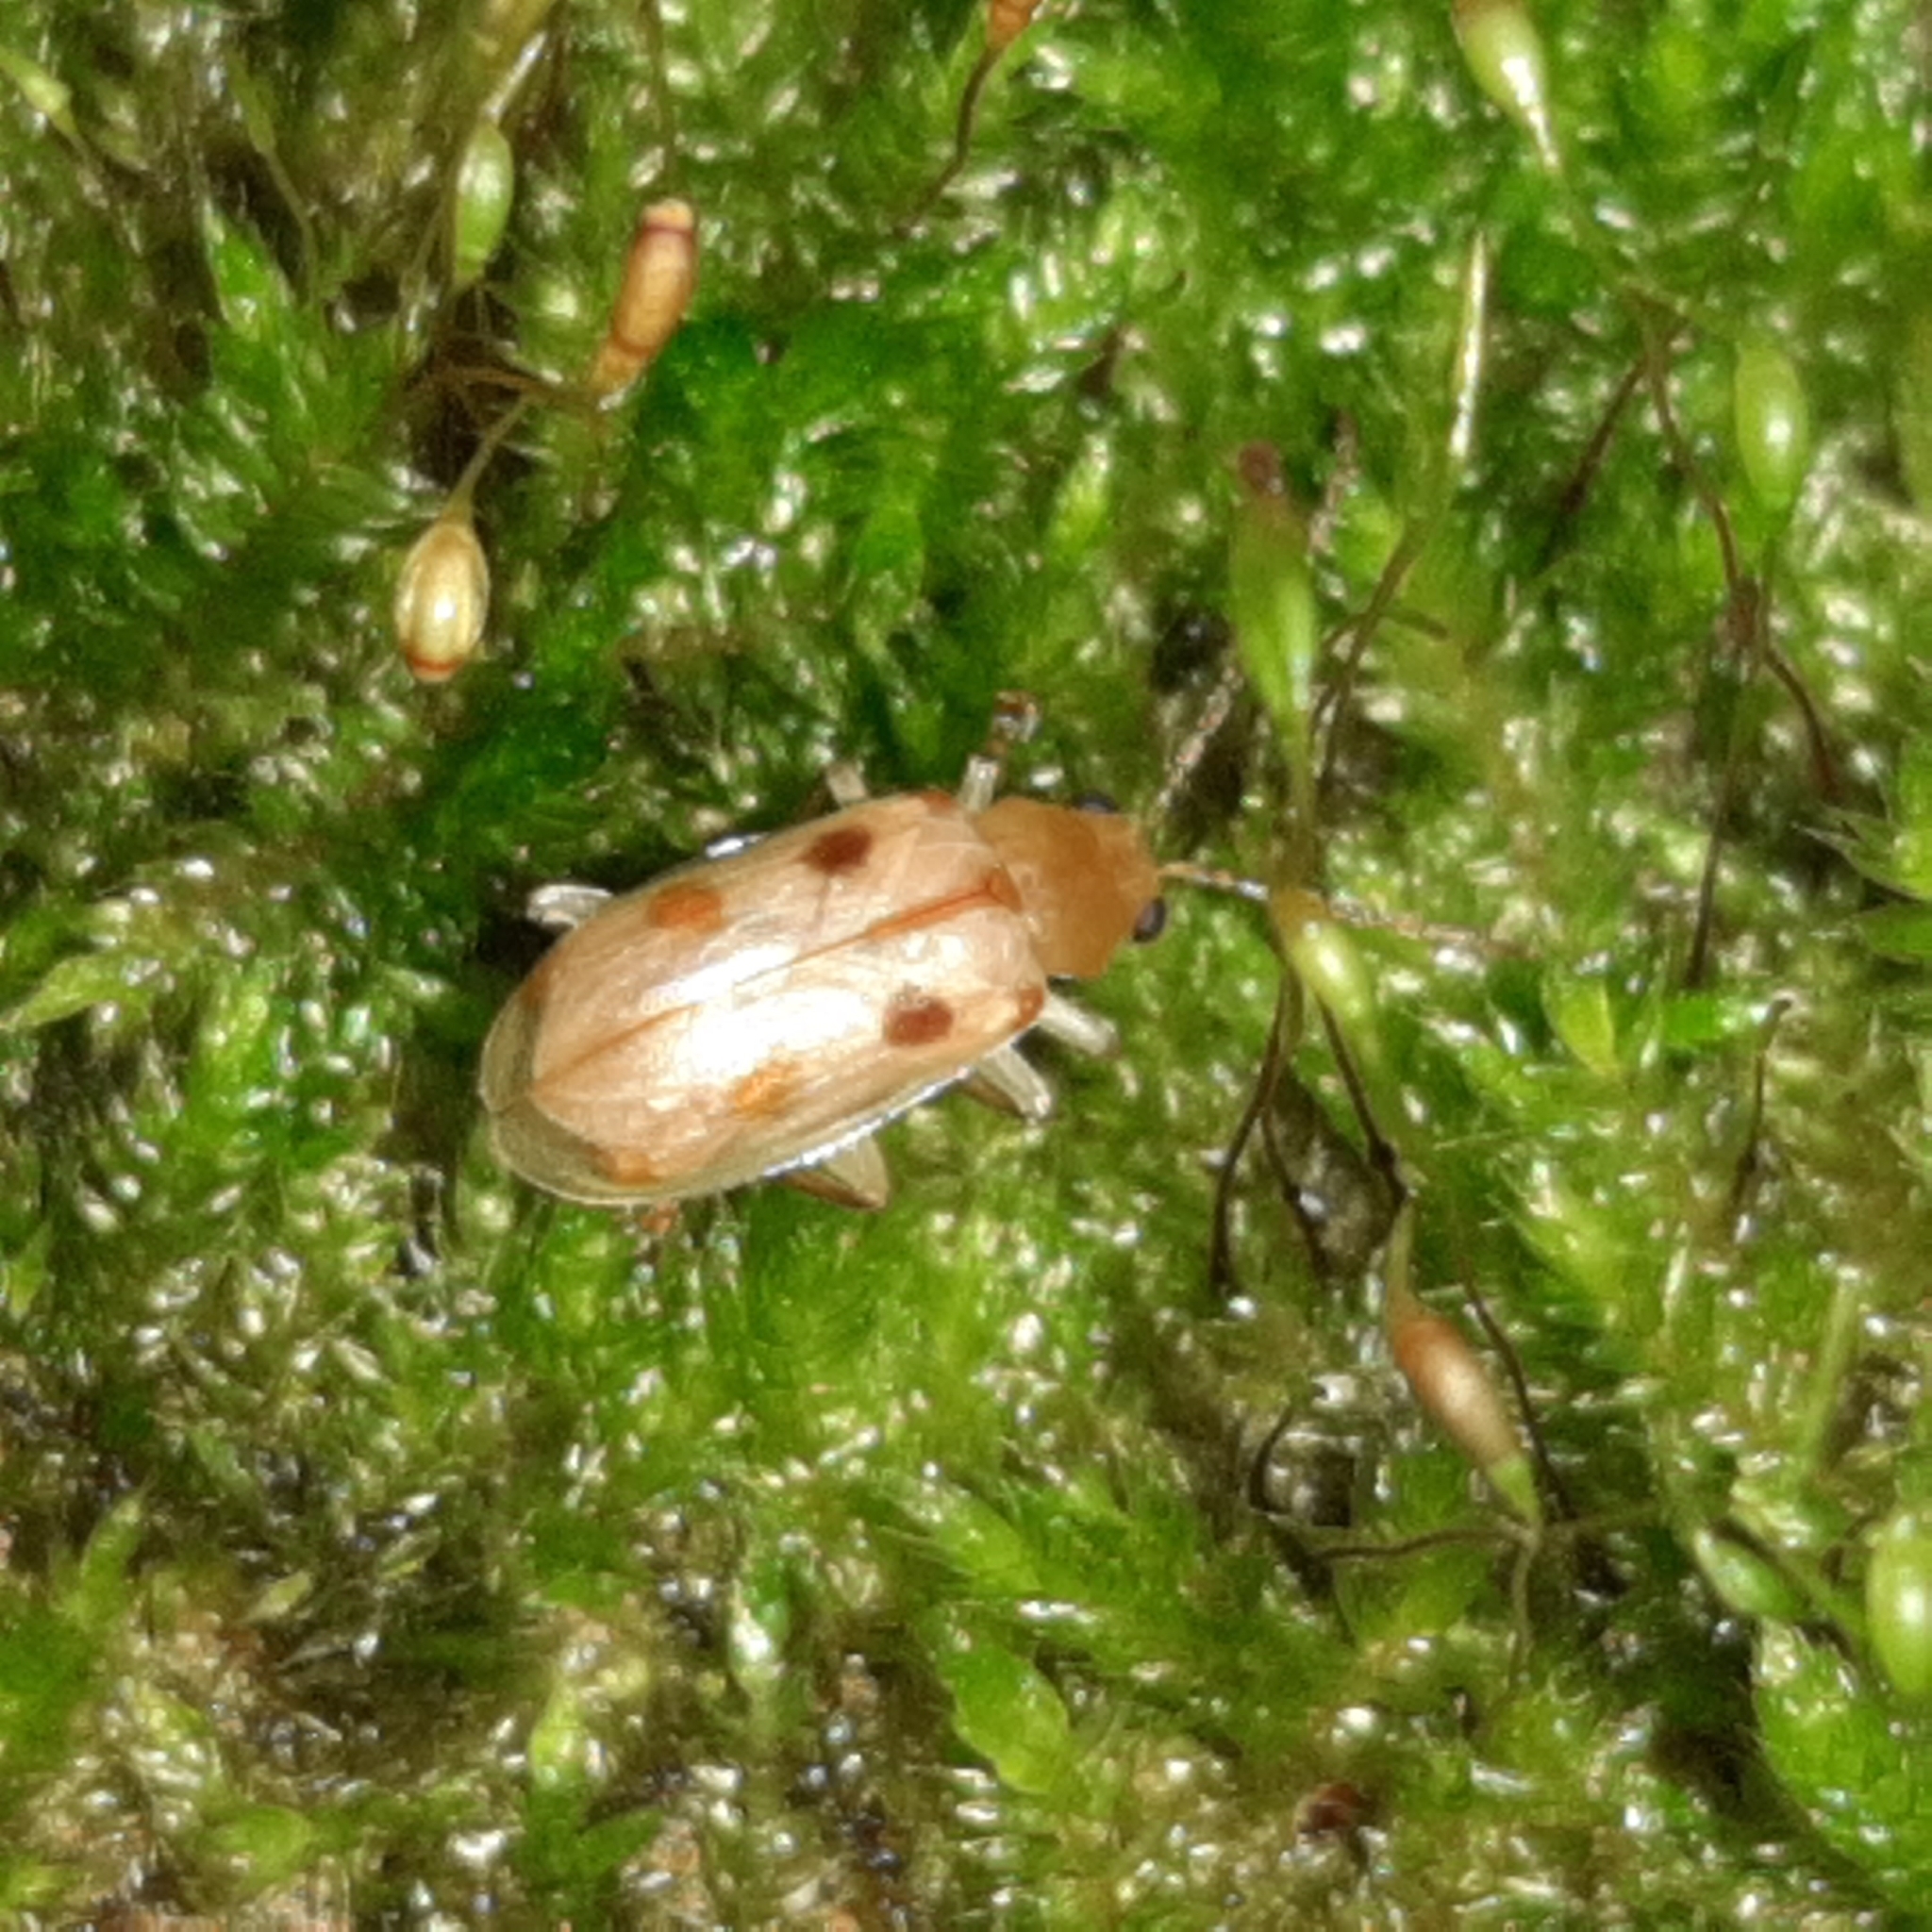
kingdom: Animalia
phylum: Arthropoda
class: Insecta
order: Coleoptera
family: Chrysomelidae
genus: Malacorhinus
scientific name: Malacorhinus
